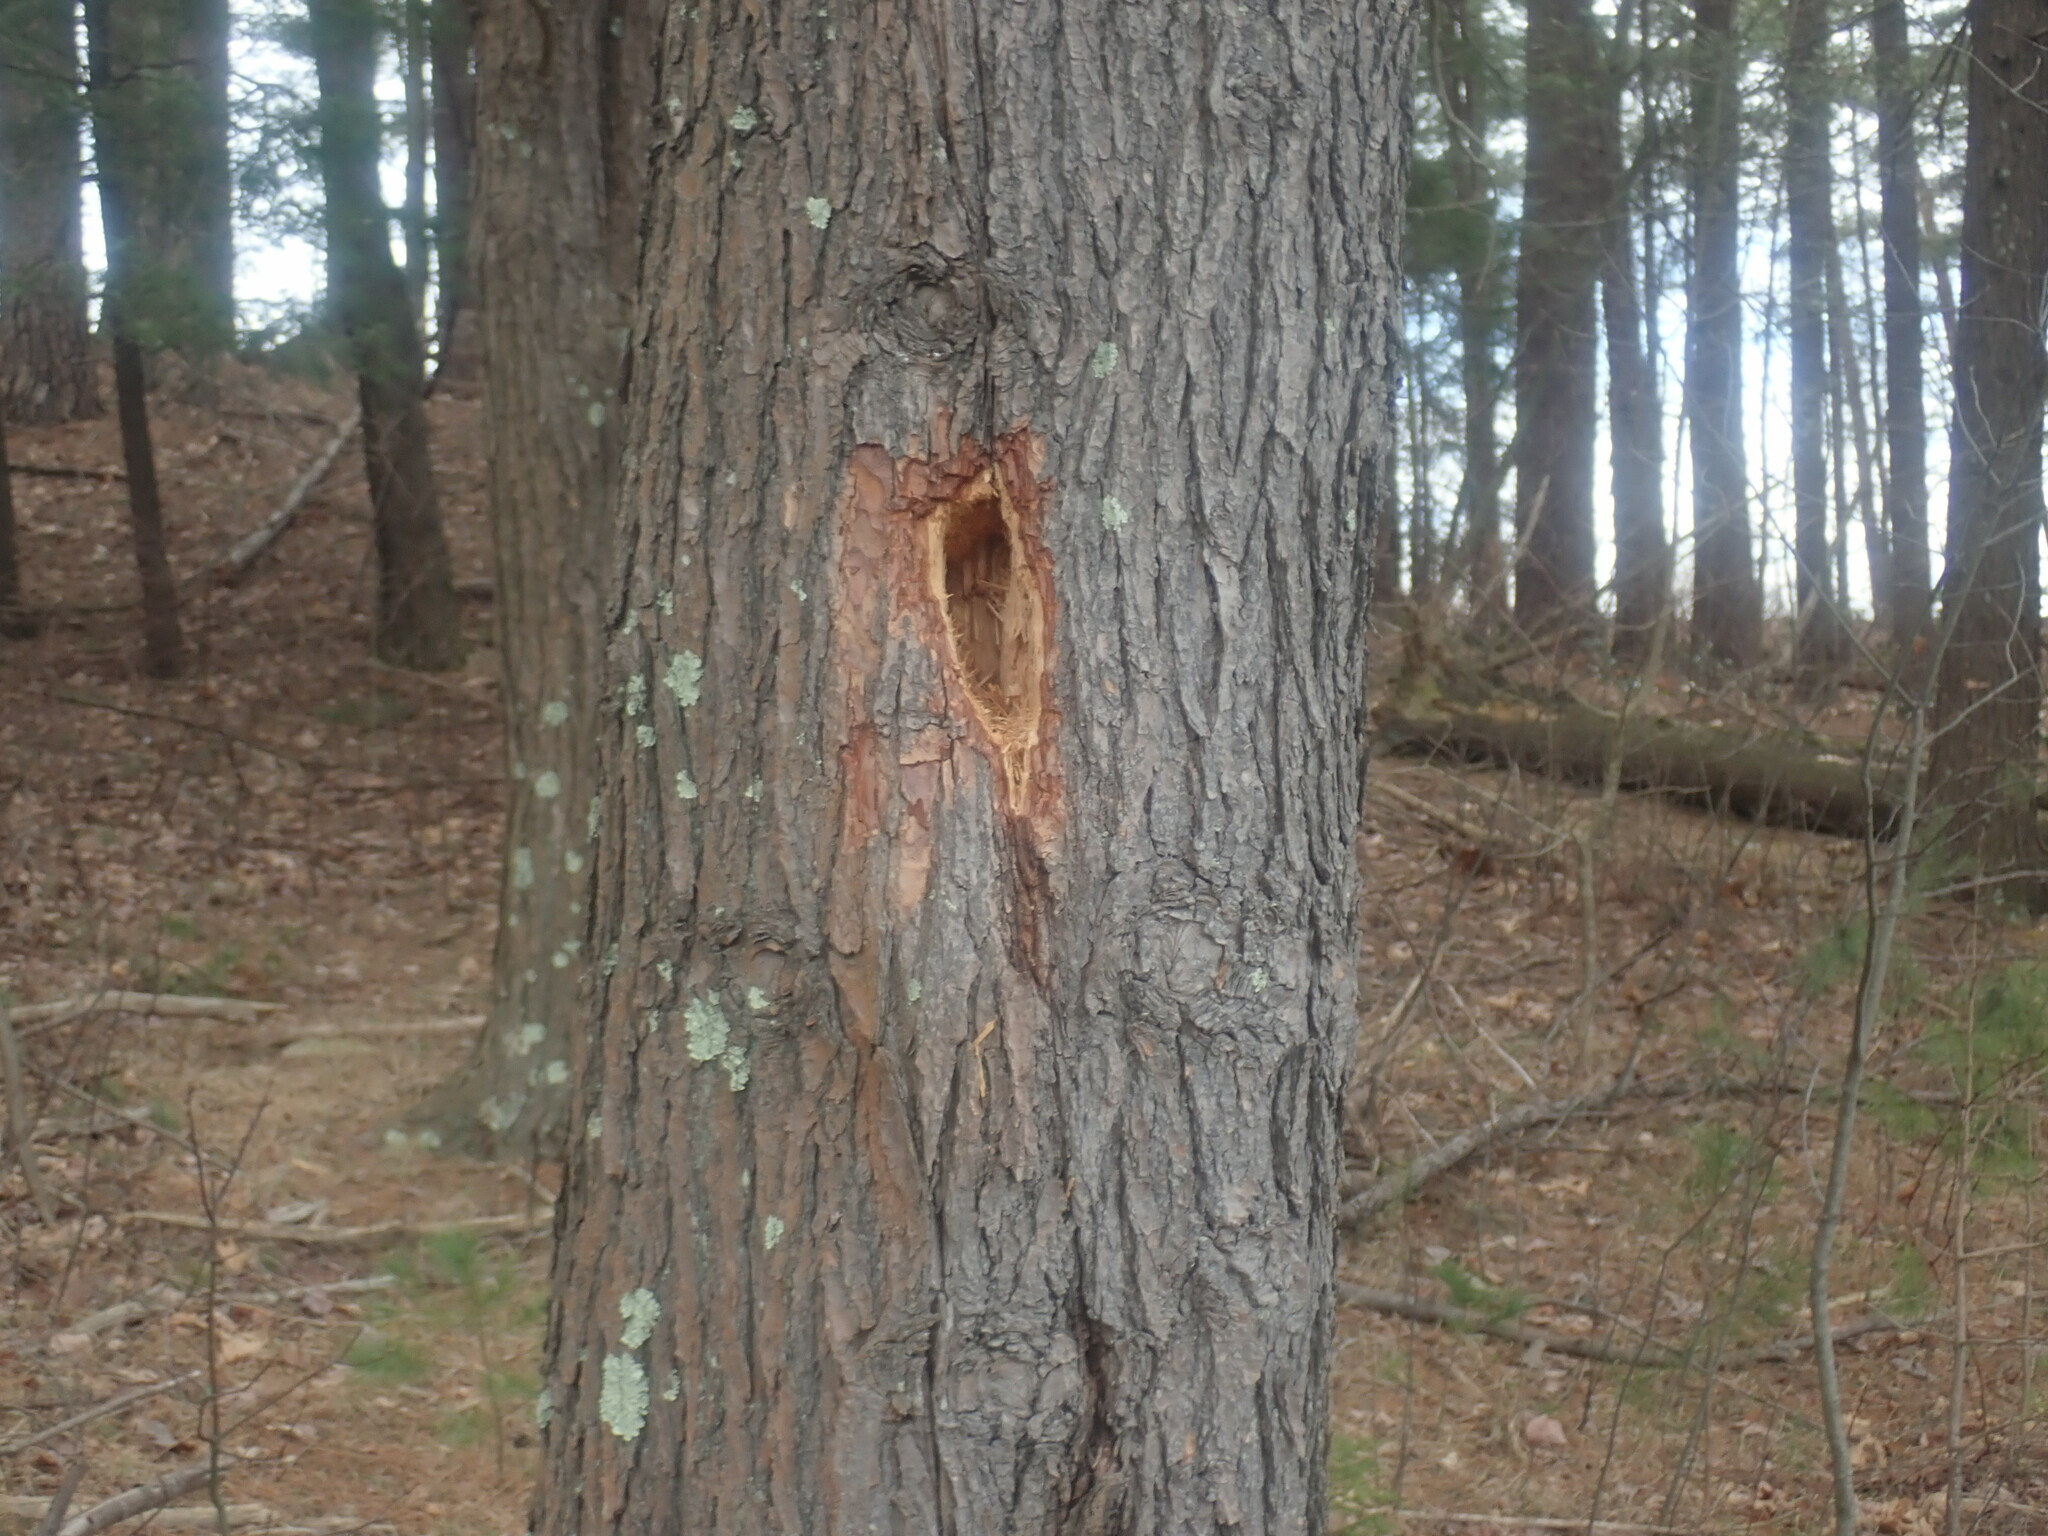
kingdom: Animalia
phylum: Chordata
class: Aves
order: Piciformes
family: Picidae
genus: Dryocopus
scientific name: Dryocopus pileatus
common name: Pileated woodpecker
